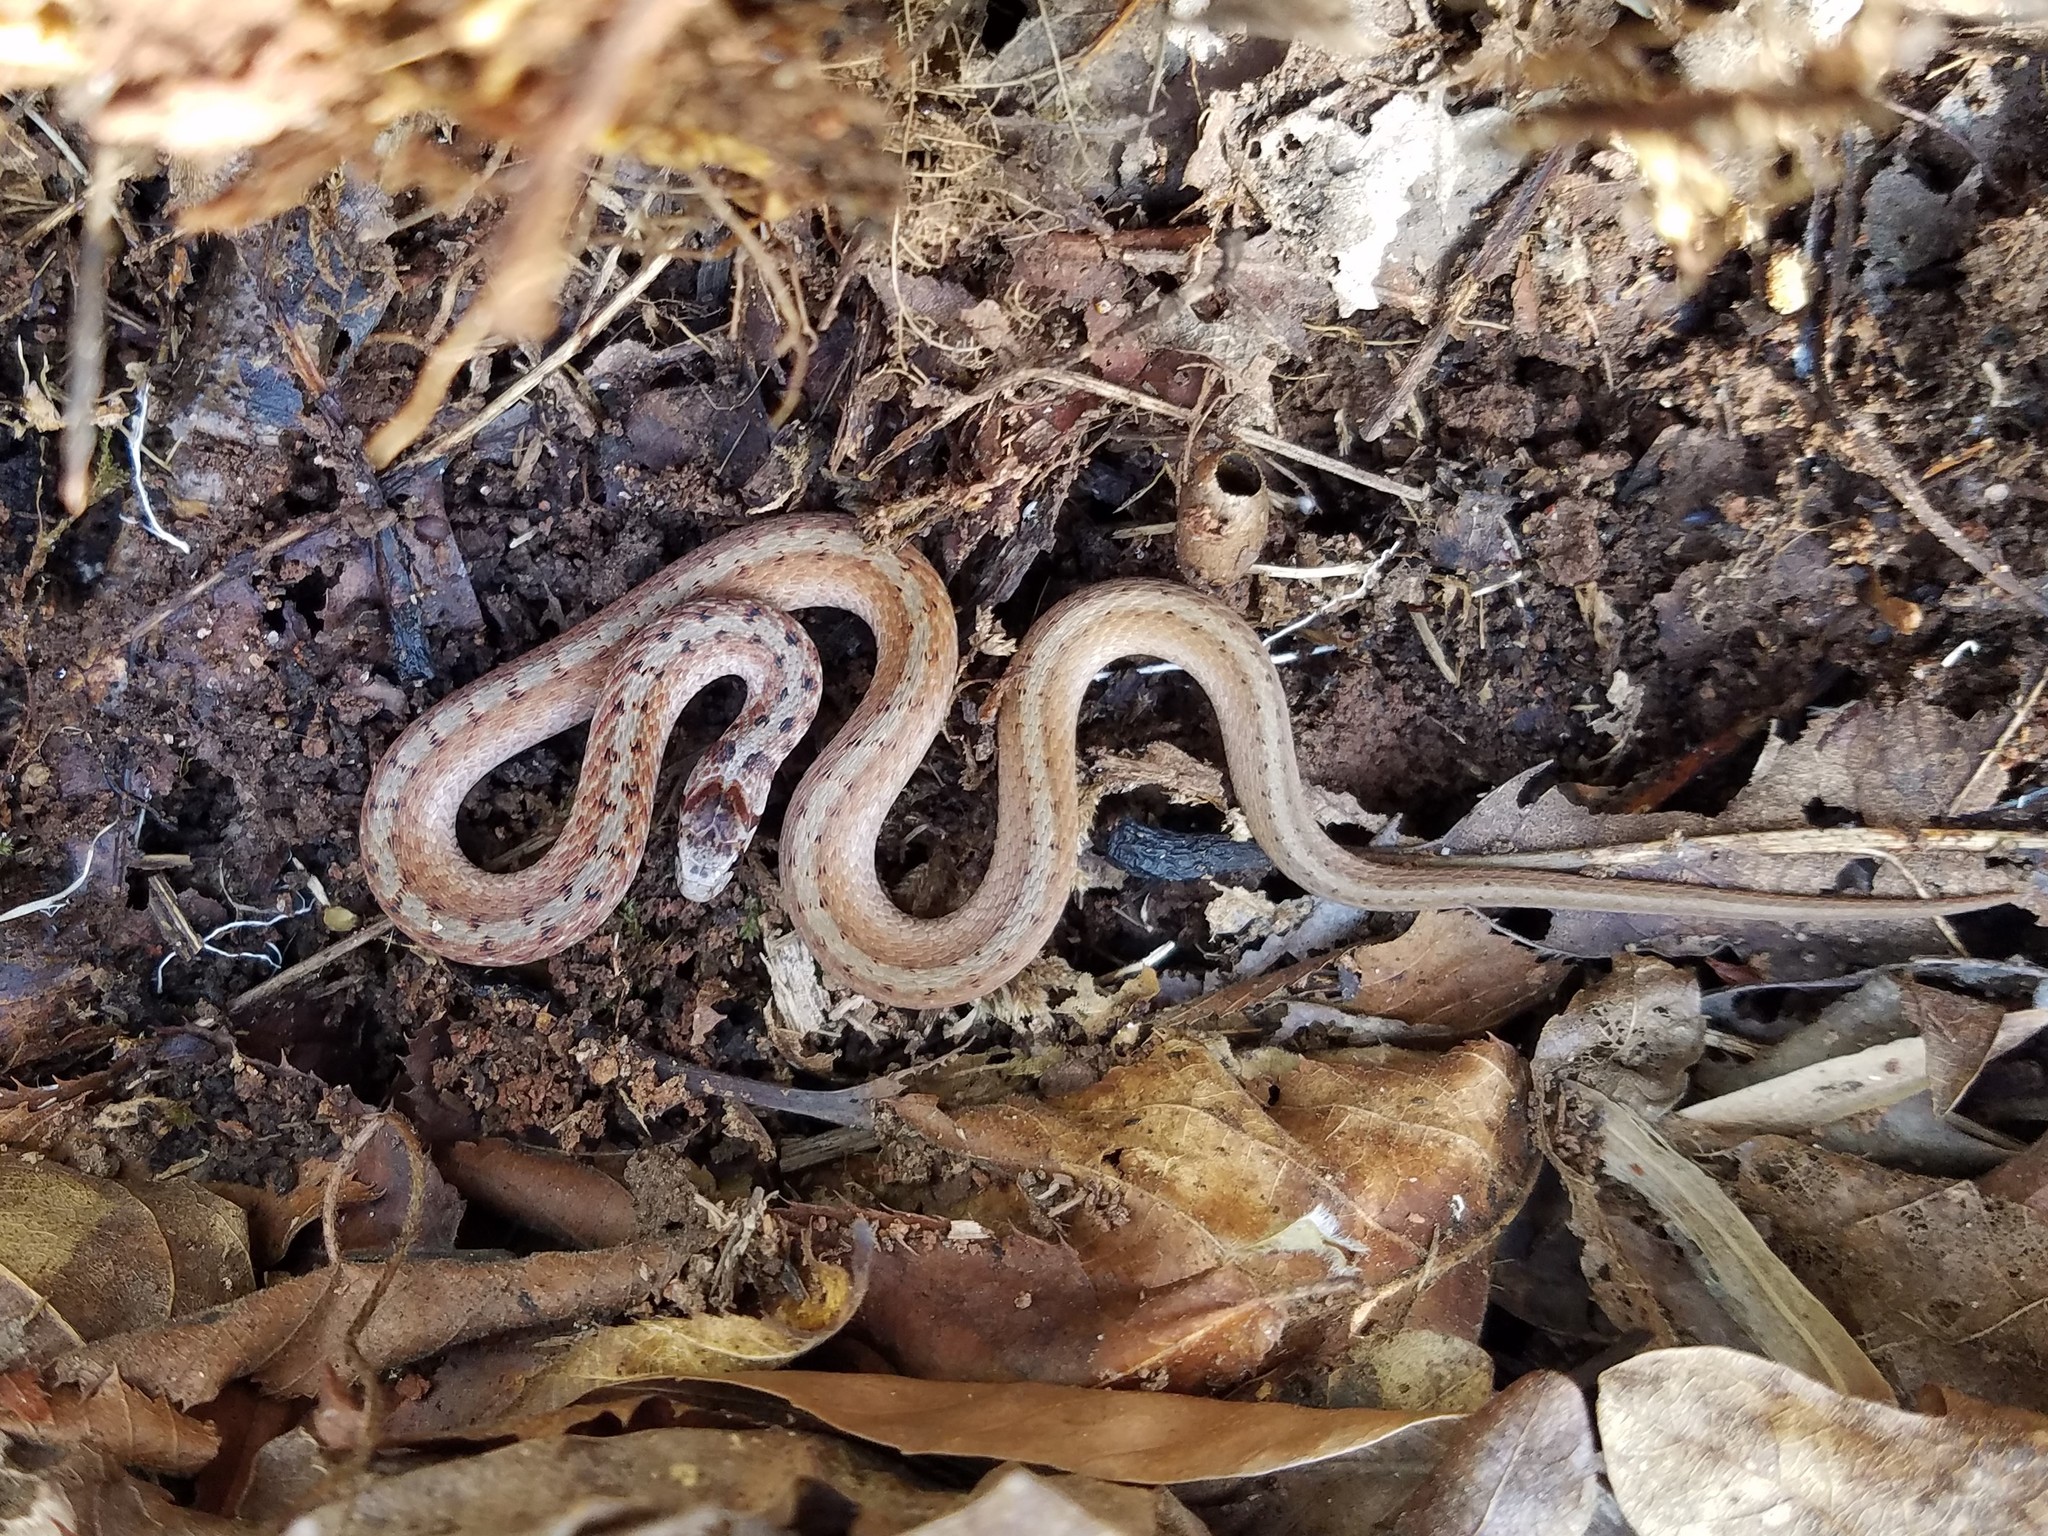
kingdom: Animalia
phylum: Chordata
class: Squamata
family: Colubridae
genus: Storeria
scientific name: Storeria dekayi
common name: (dekay’s) brown snake
